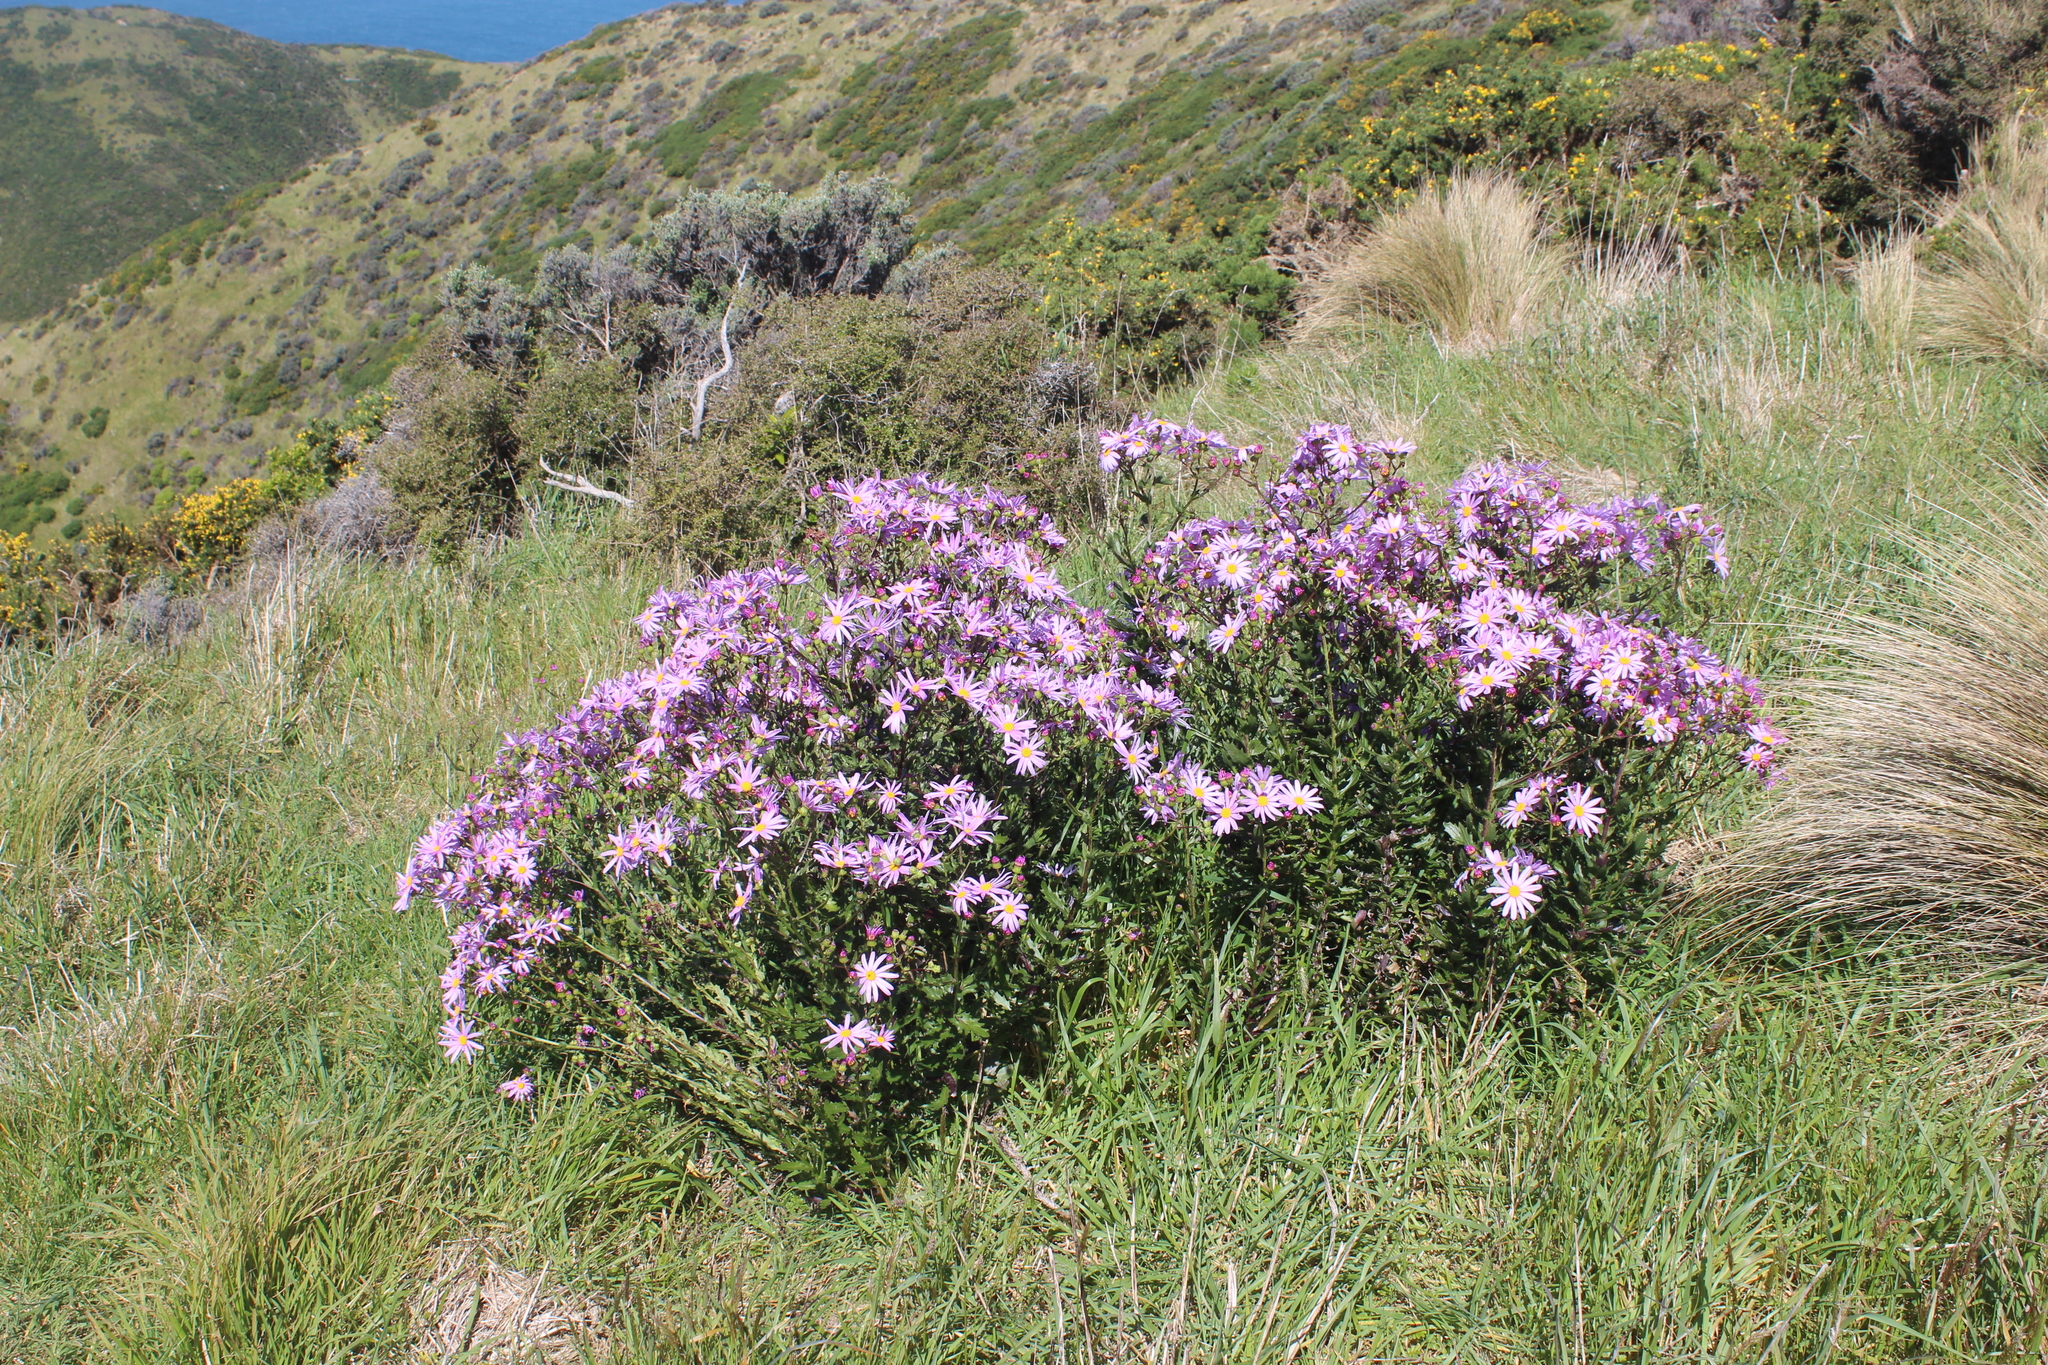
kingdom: Plantae
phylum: Tracheophyta
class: Magnoliopsida
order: Asterales
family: Asteraceae
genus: Senecio
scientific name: Senecio glastifolius
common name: Woad-leaved ragwort
